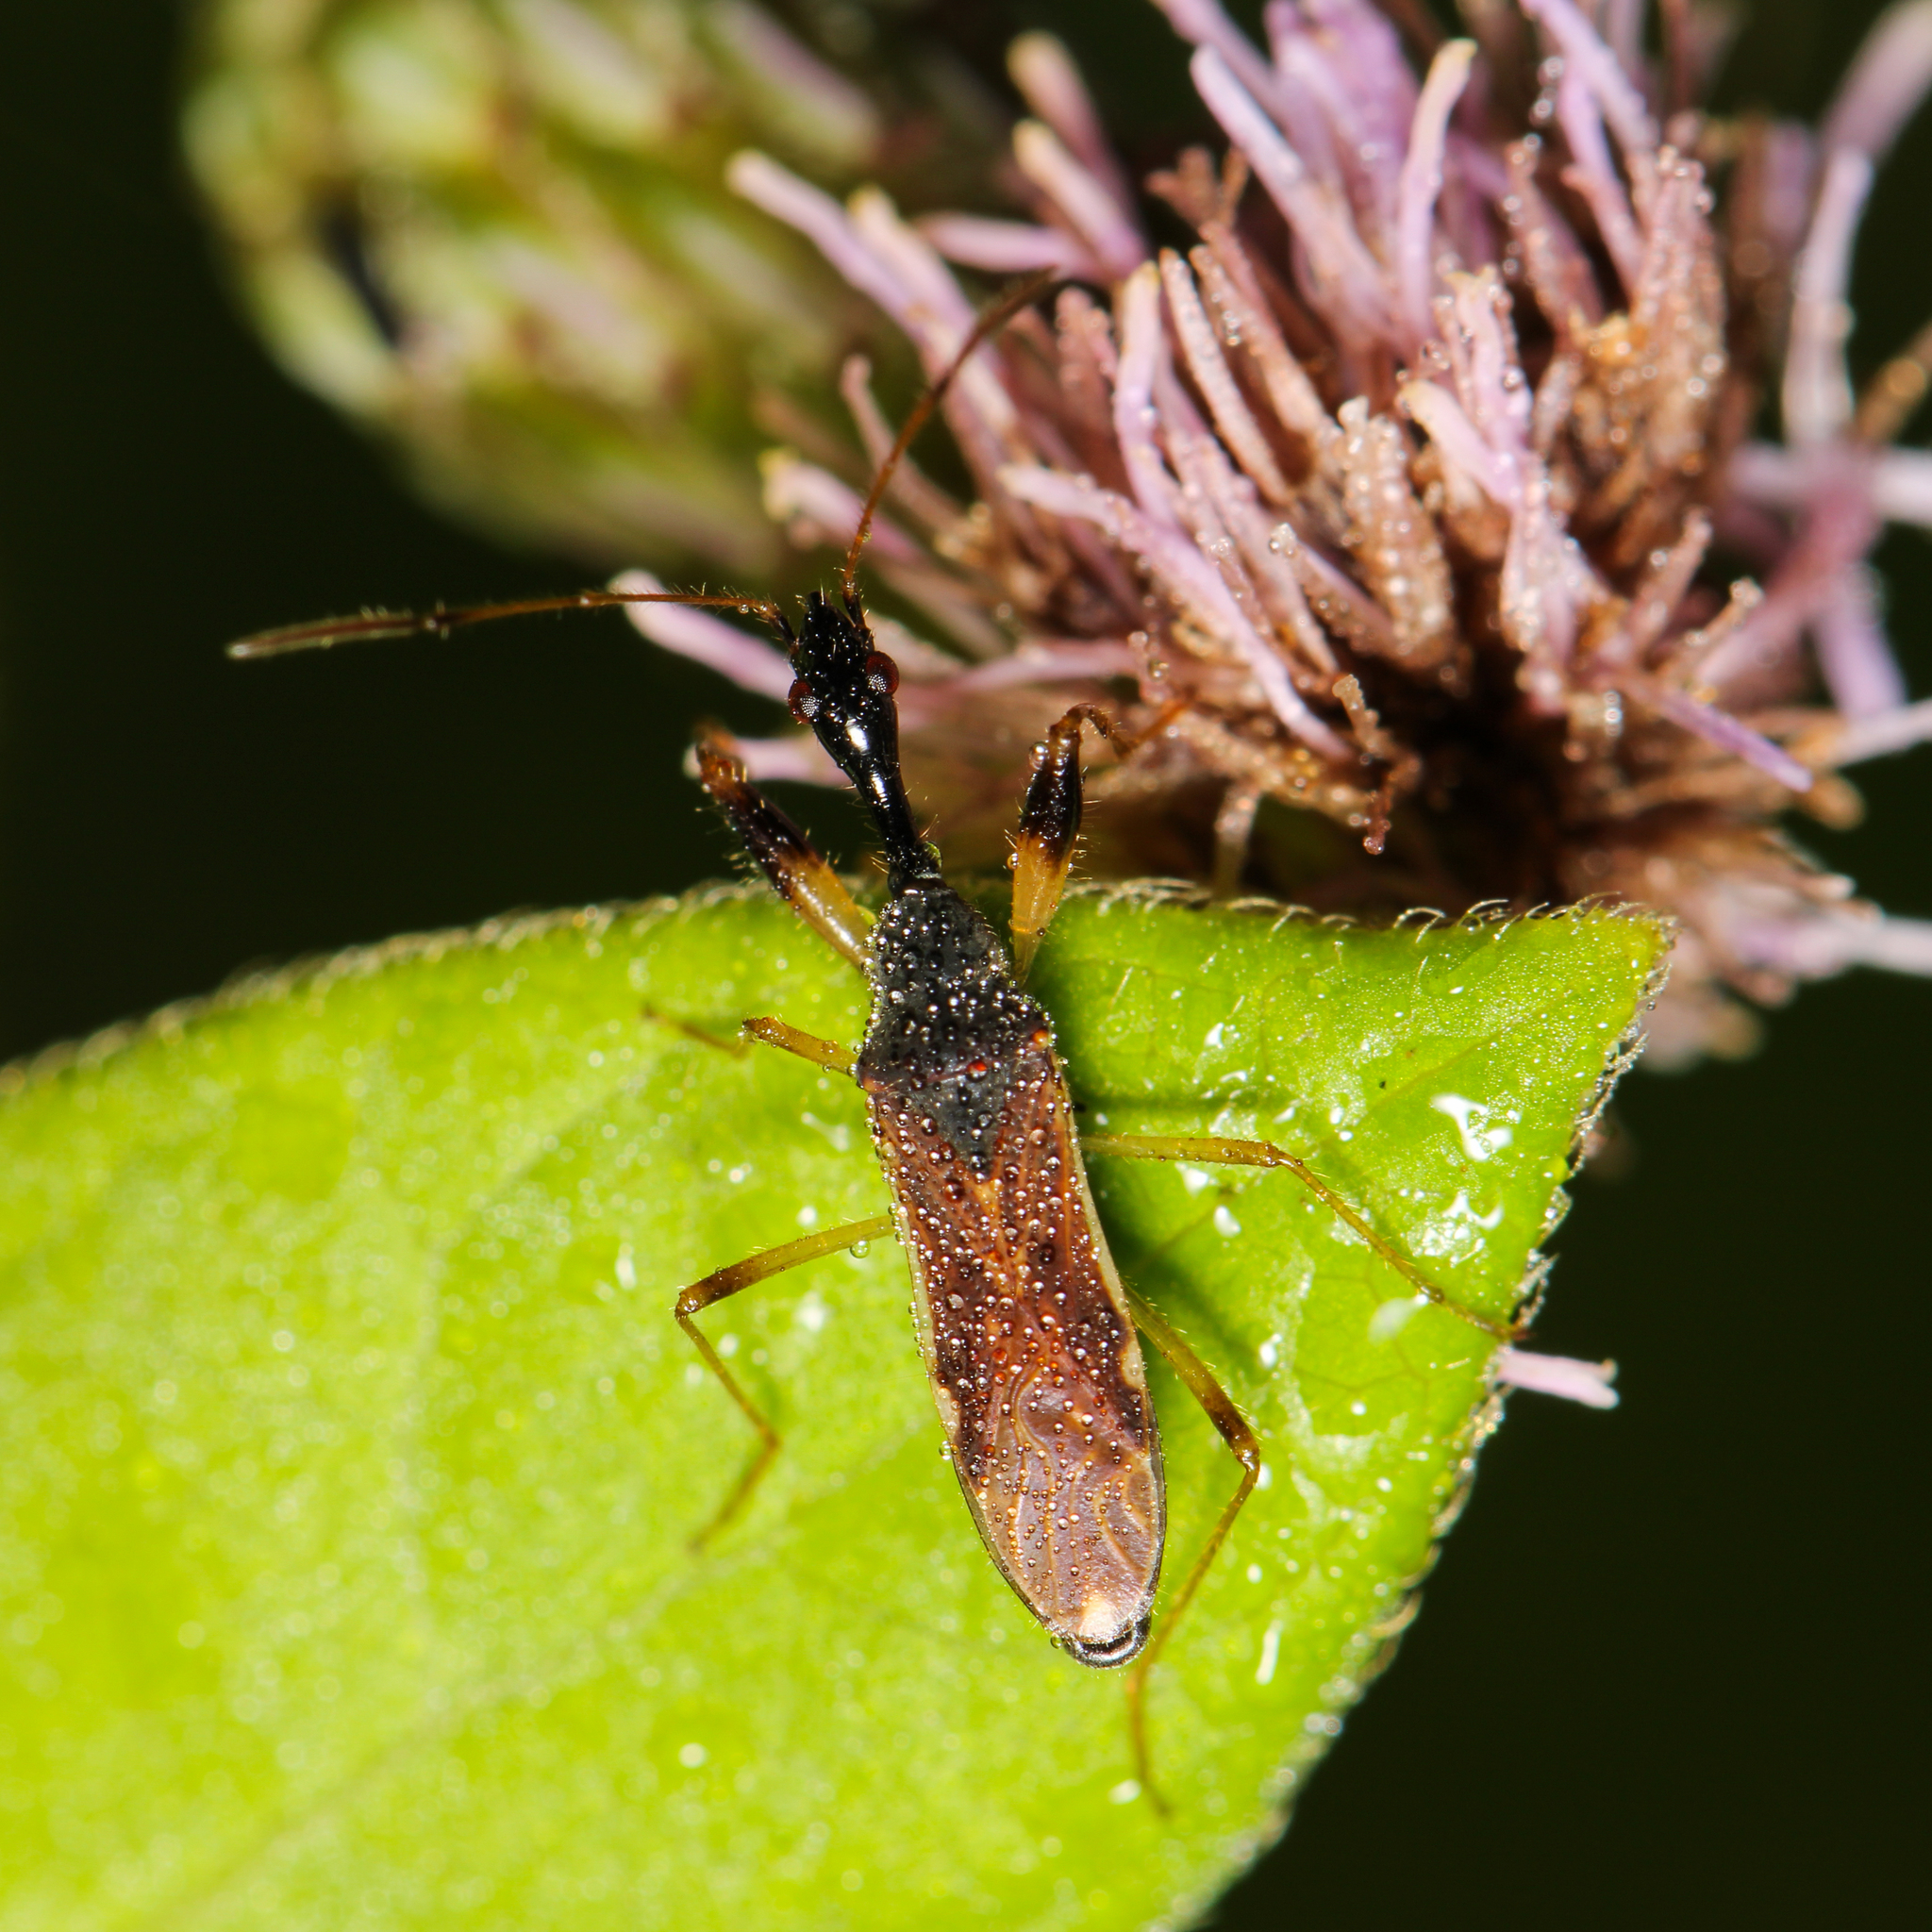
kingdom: Animalia
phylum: Arthropoda
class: Insecta
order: Hemiptera
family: Rhyparochromidae
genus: Myodocha
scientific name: Myodocha serripes
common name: Long-necked seed bug
